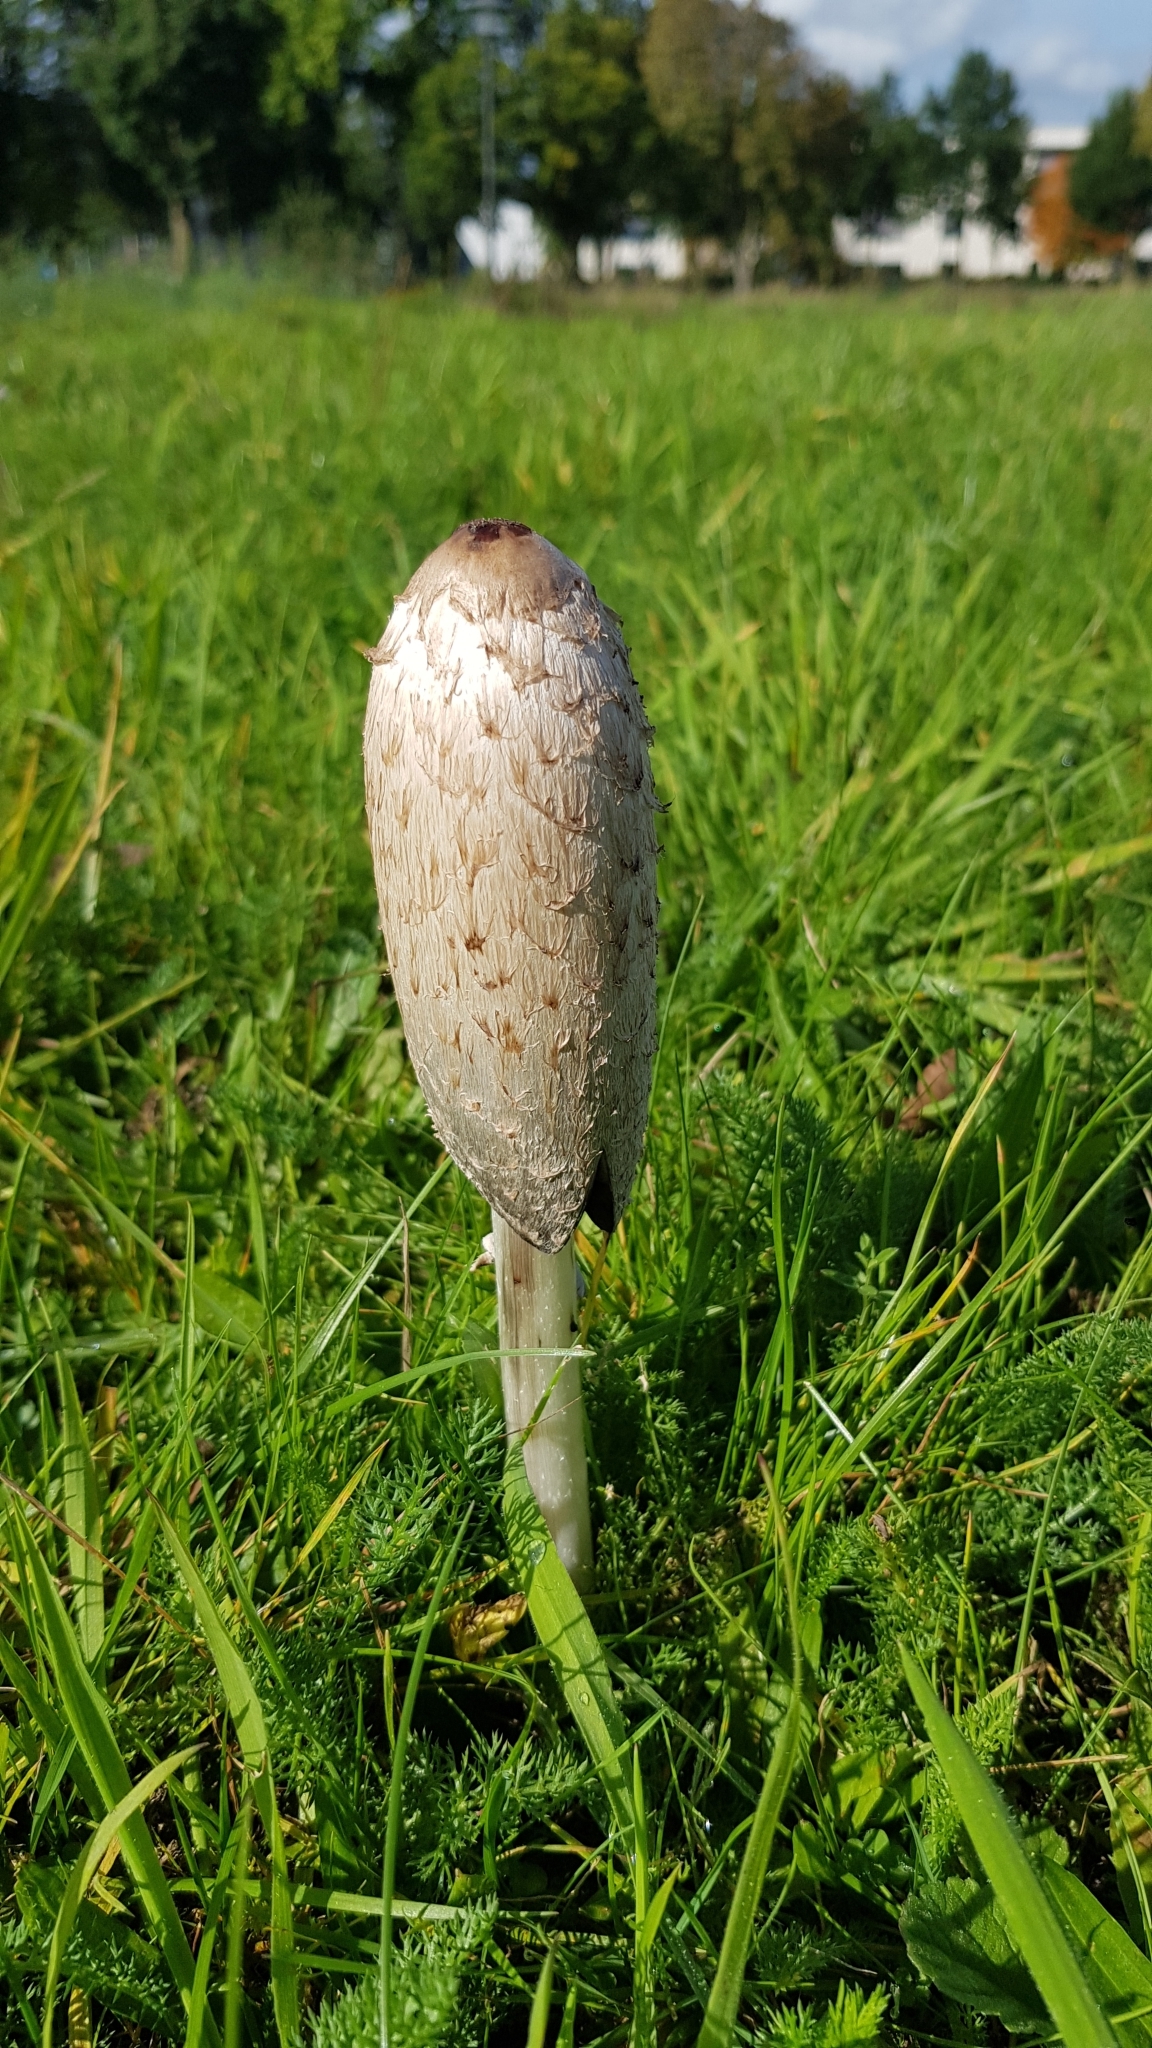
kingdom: Fungi
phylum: Basidiomycota
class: Agaricomycetes
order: Agaricales
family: Agaricaceae
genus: Coprinus
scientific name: Coprinus comatus
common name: Lawyer's wig
